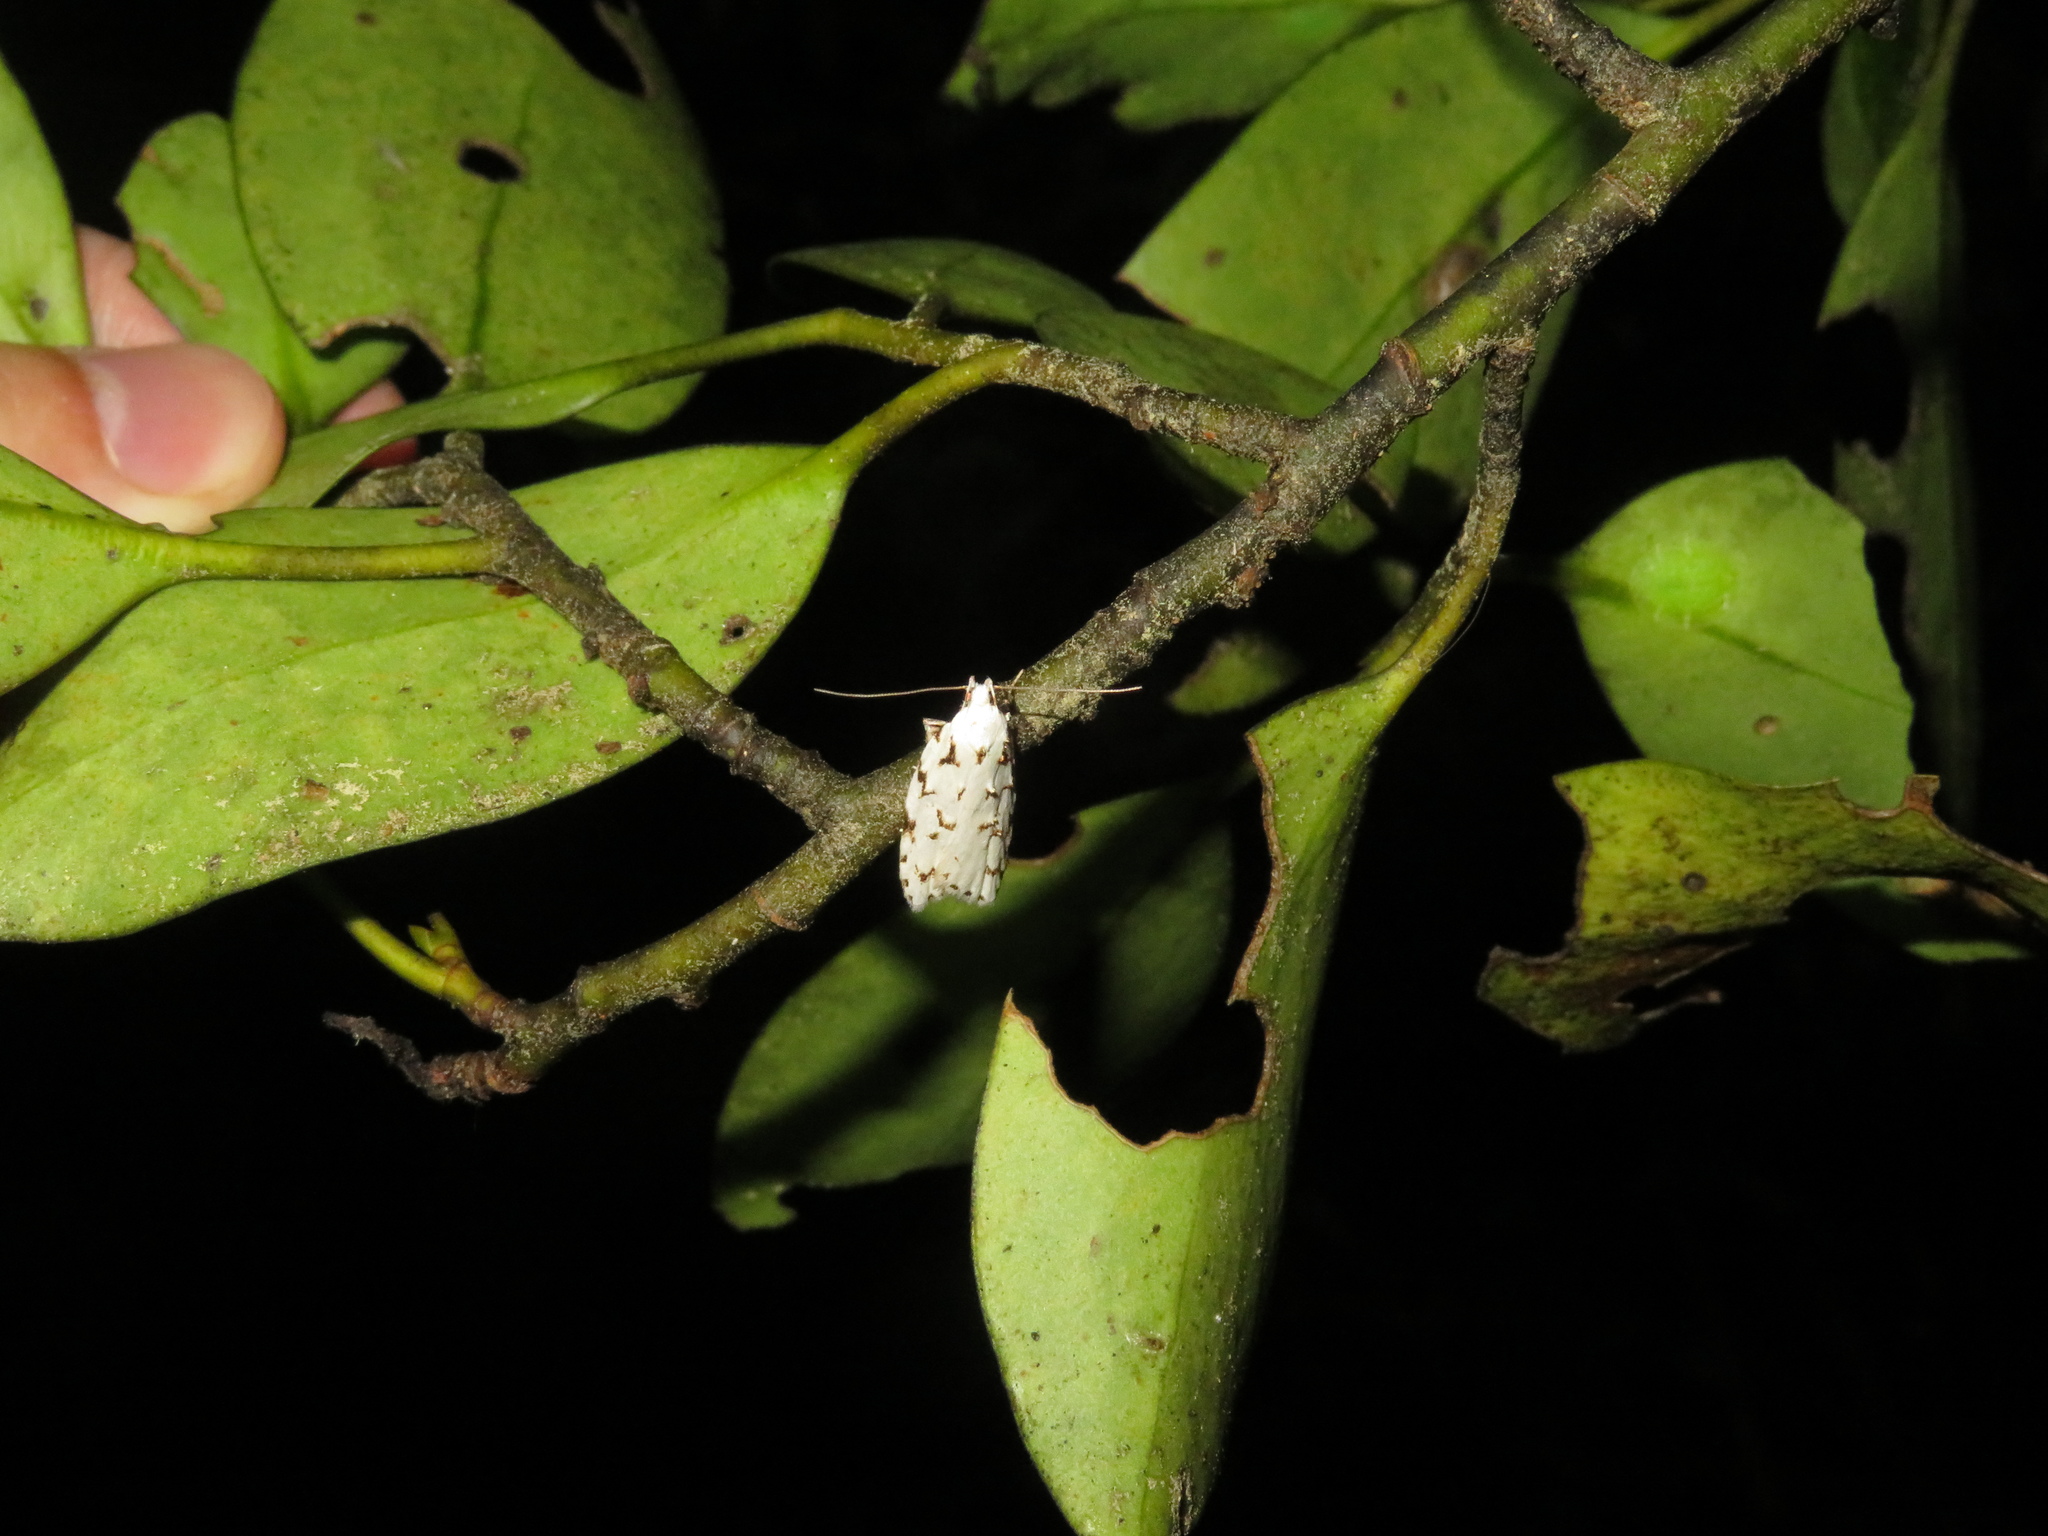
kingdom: Animalia
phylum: Arthropoda
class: Insecta
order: Lepidoptera
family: Oecophoridae
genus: Izatha
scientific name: Izatha hudsoni
